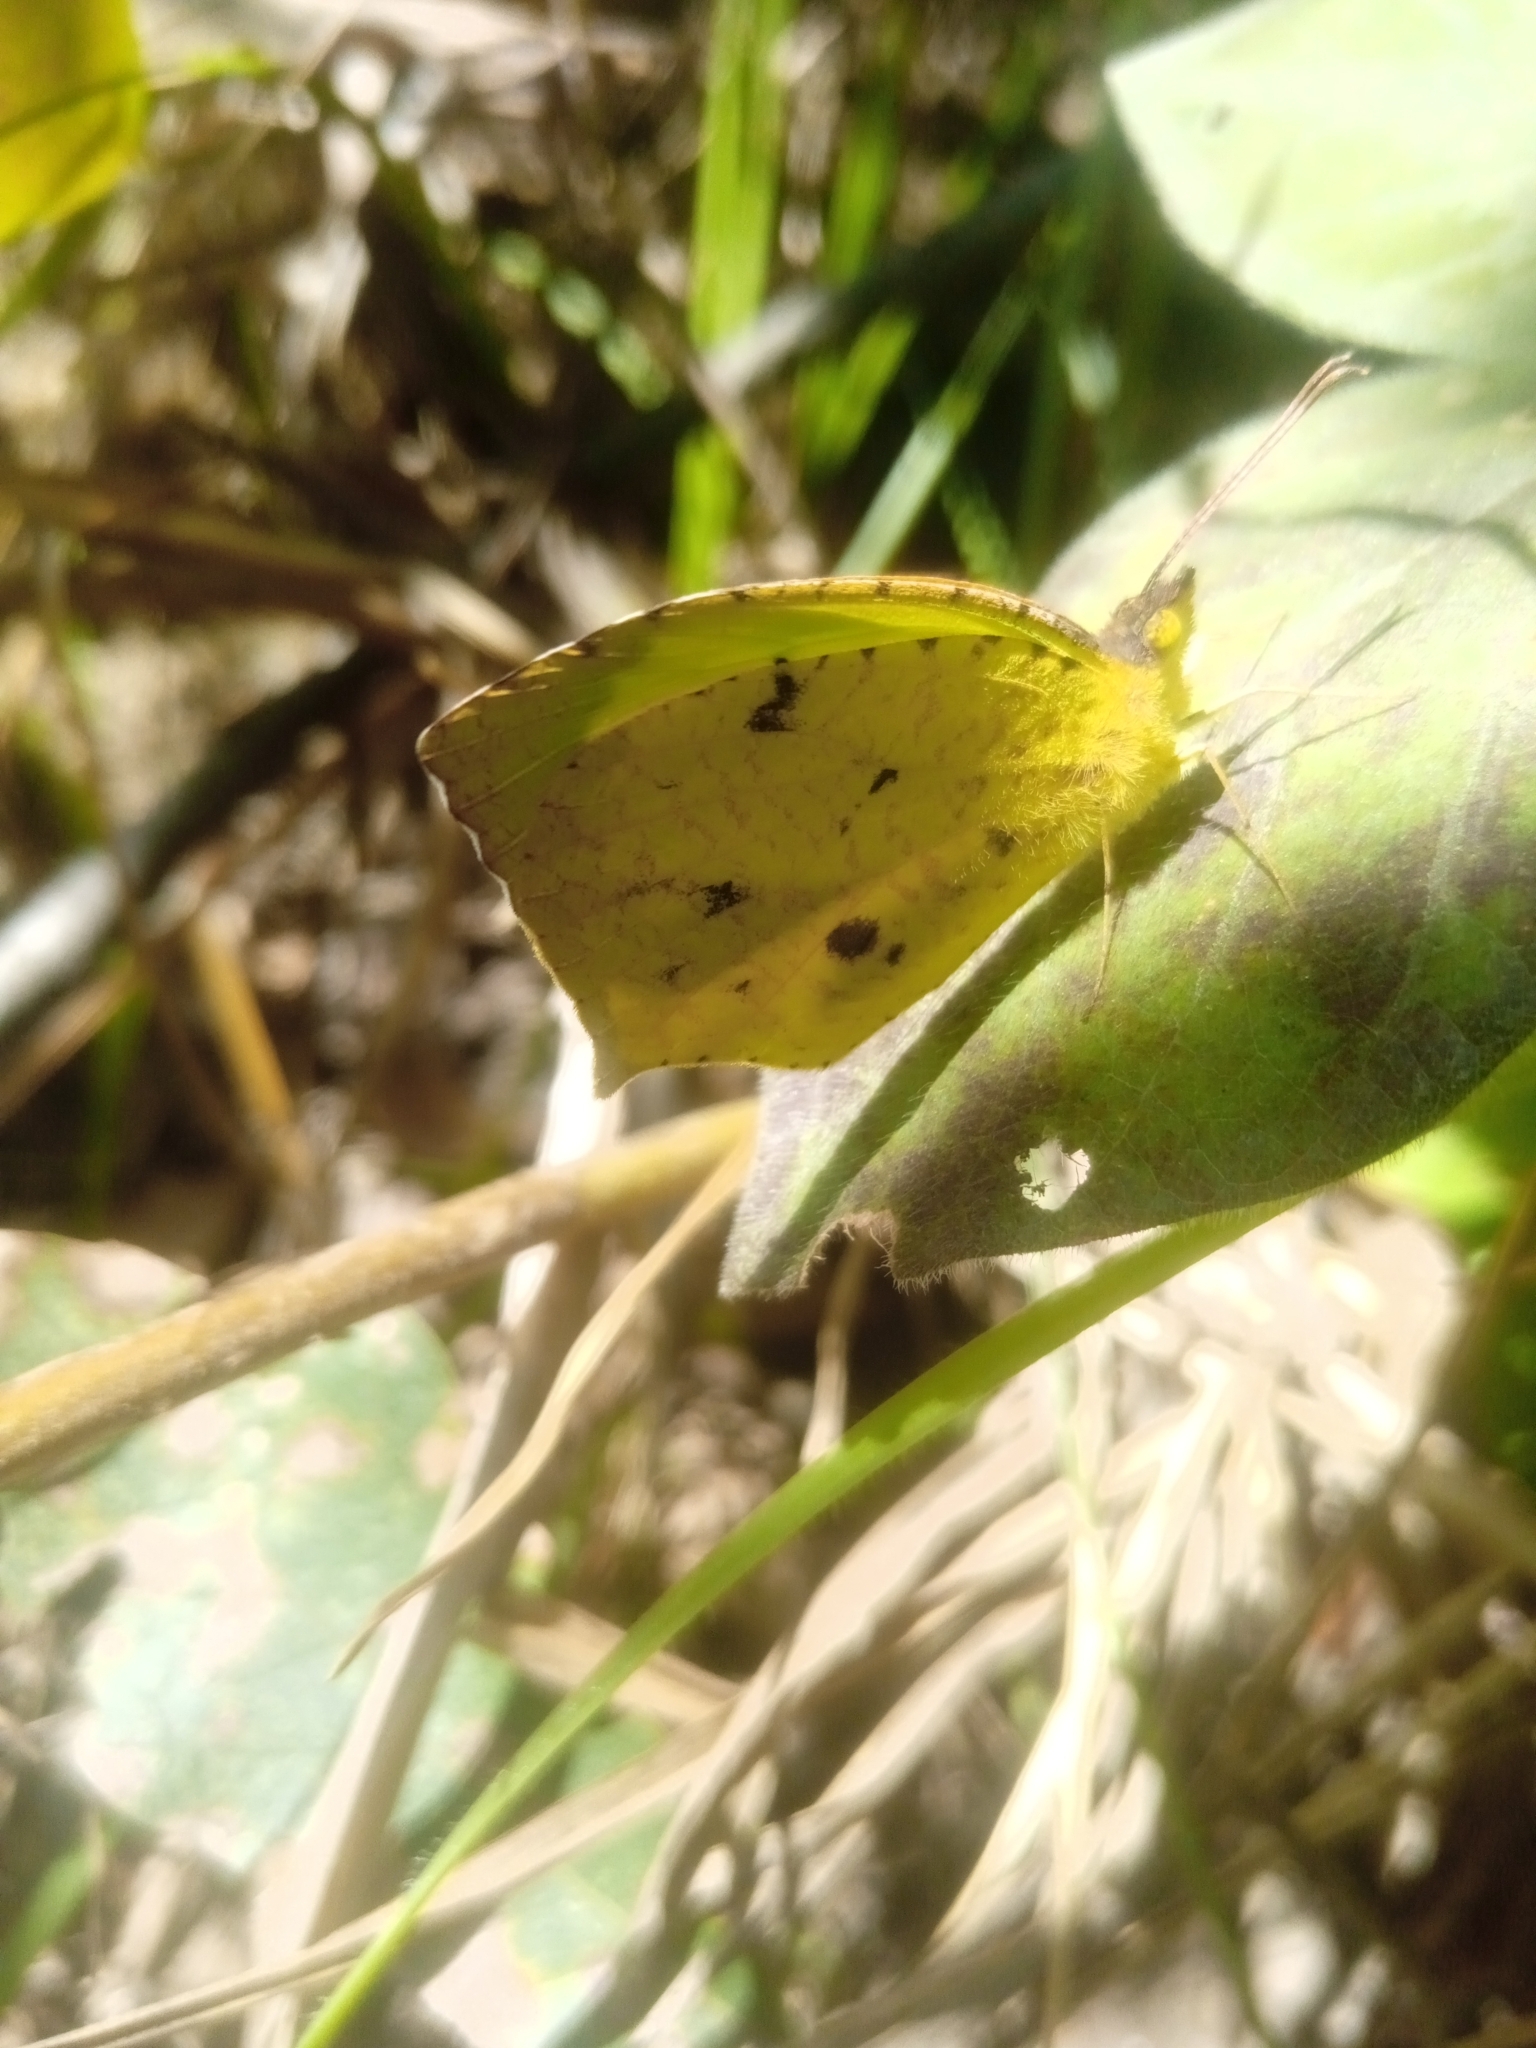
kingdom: Animalia
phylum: Arthropoda
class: Insecta
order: Lepidoptera
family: Pieridae
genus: Abaeis
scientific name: Abaeis salome
